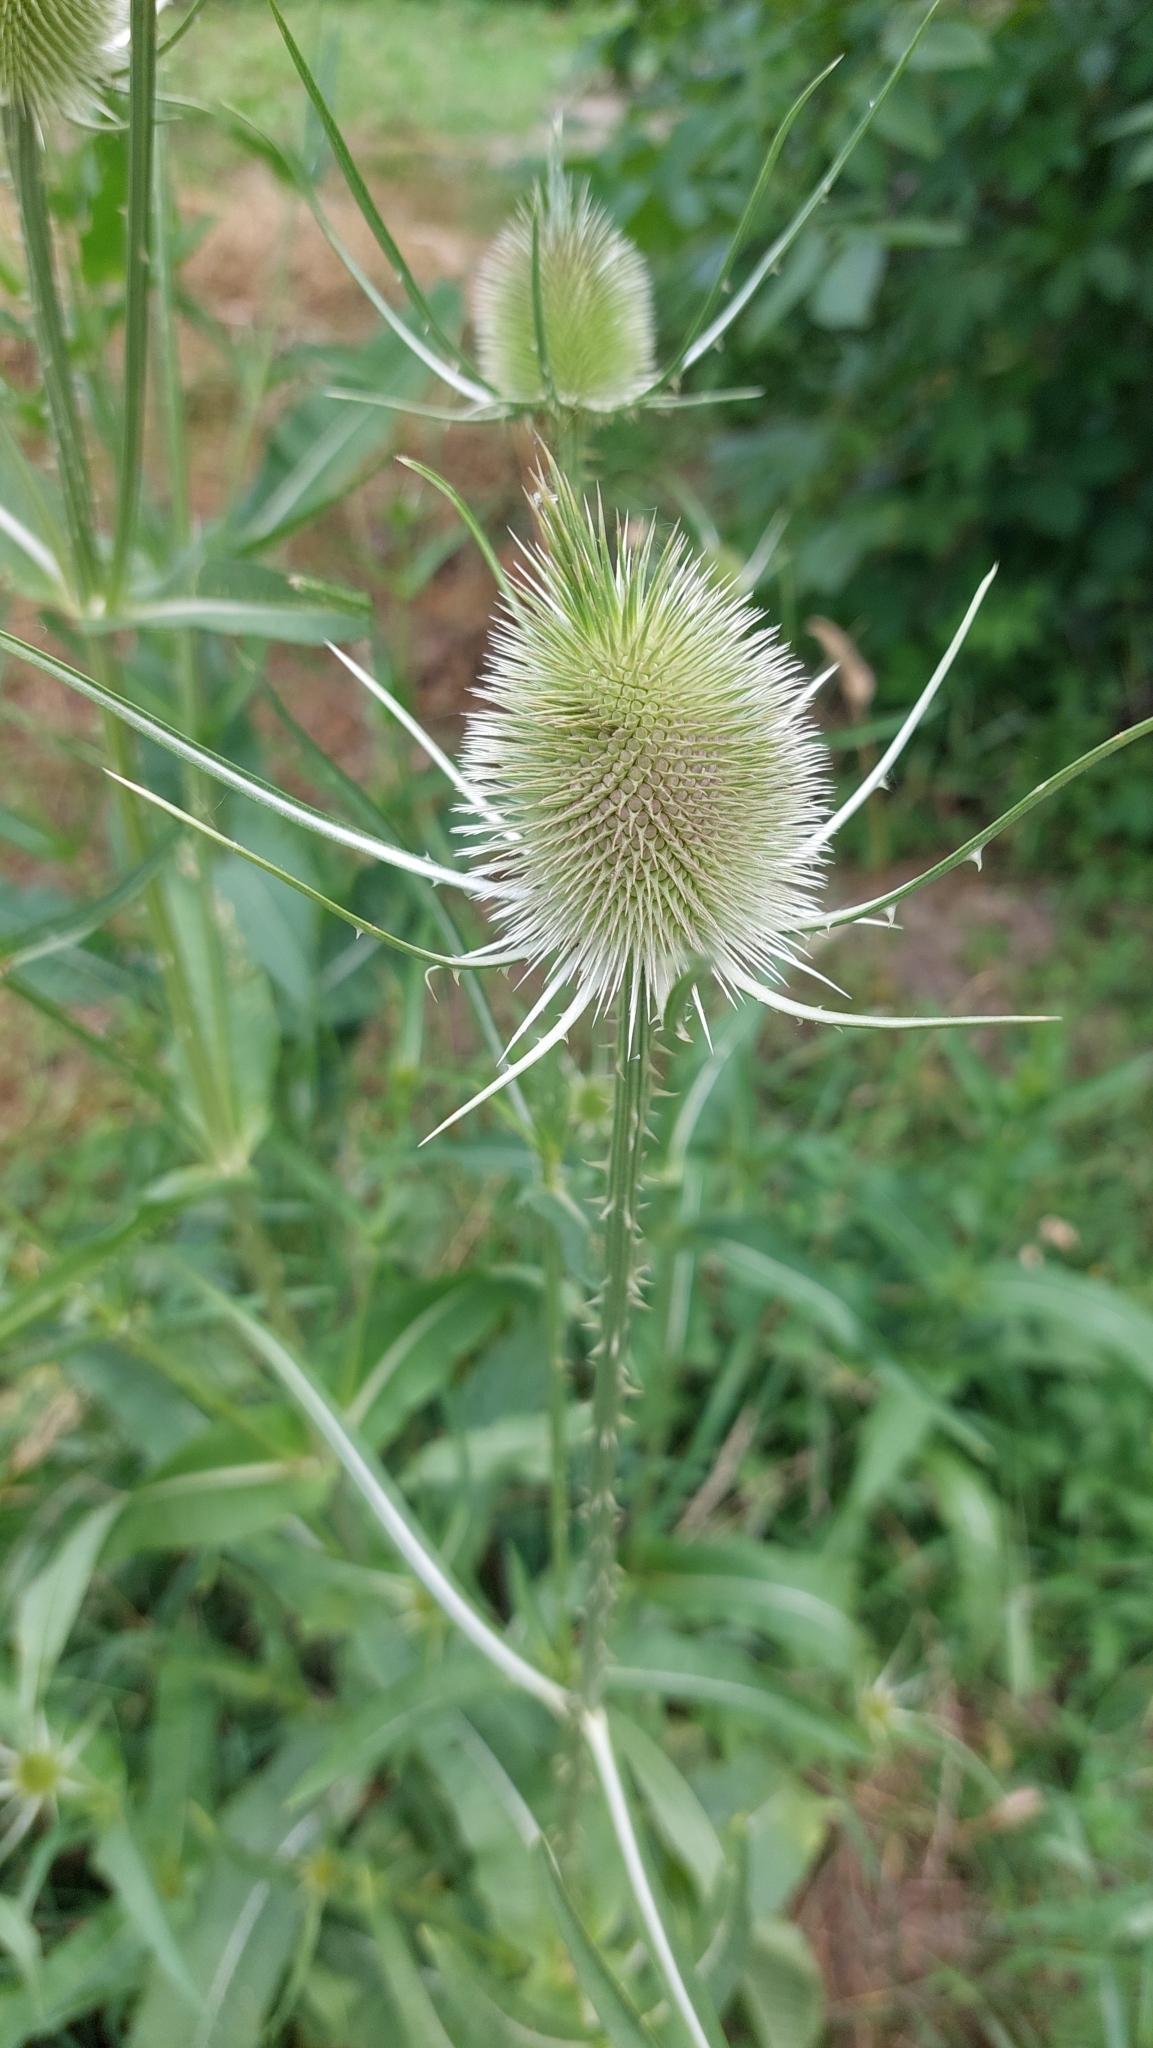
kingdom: Plantae
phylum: Tracheophyta
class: Magnoliopsida
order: Dipsacales
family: Caprifoliaceae
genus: Dipsacus
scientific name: Dipsacus fullonum
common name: Teasel
